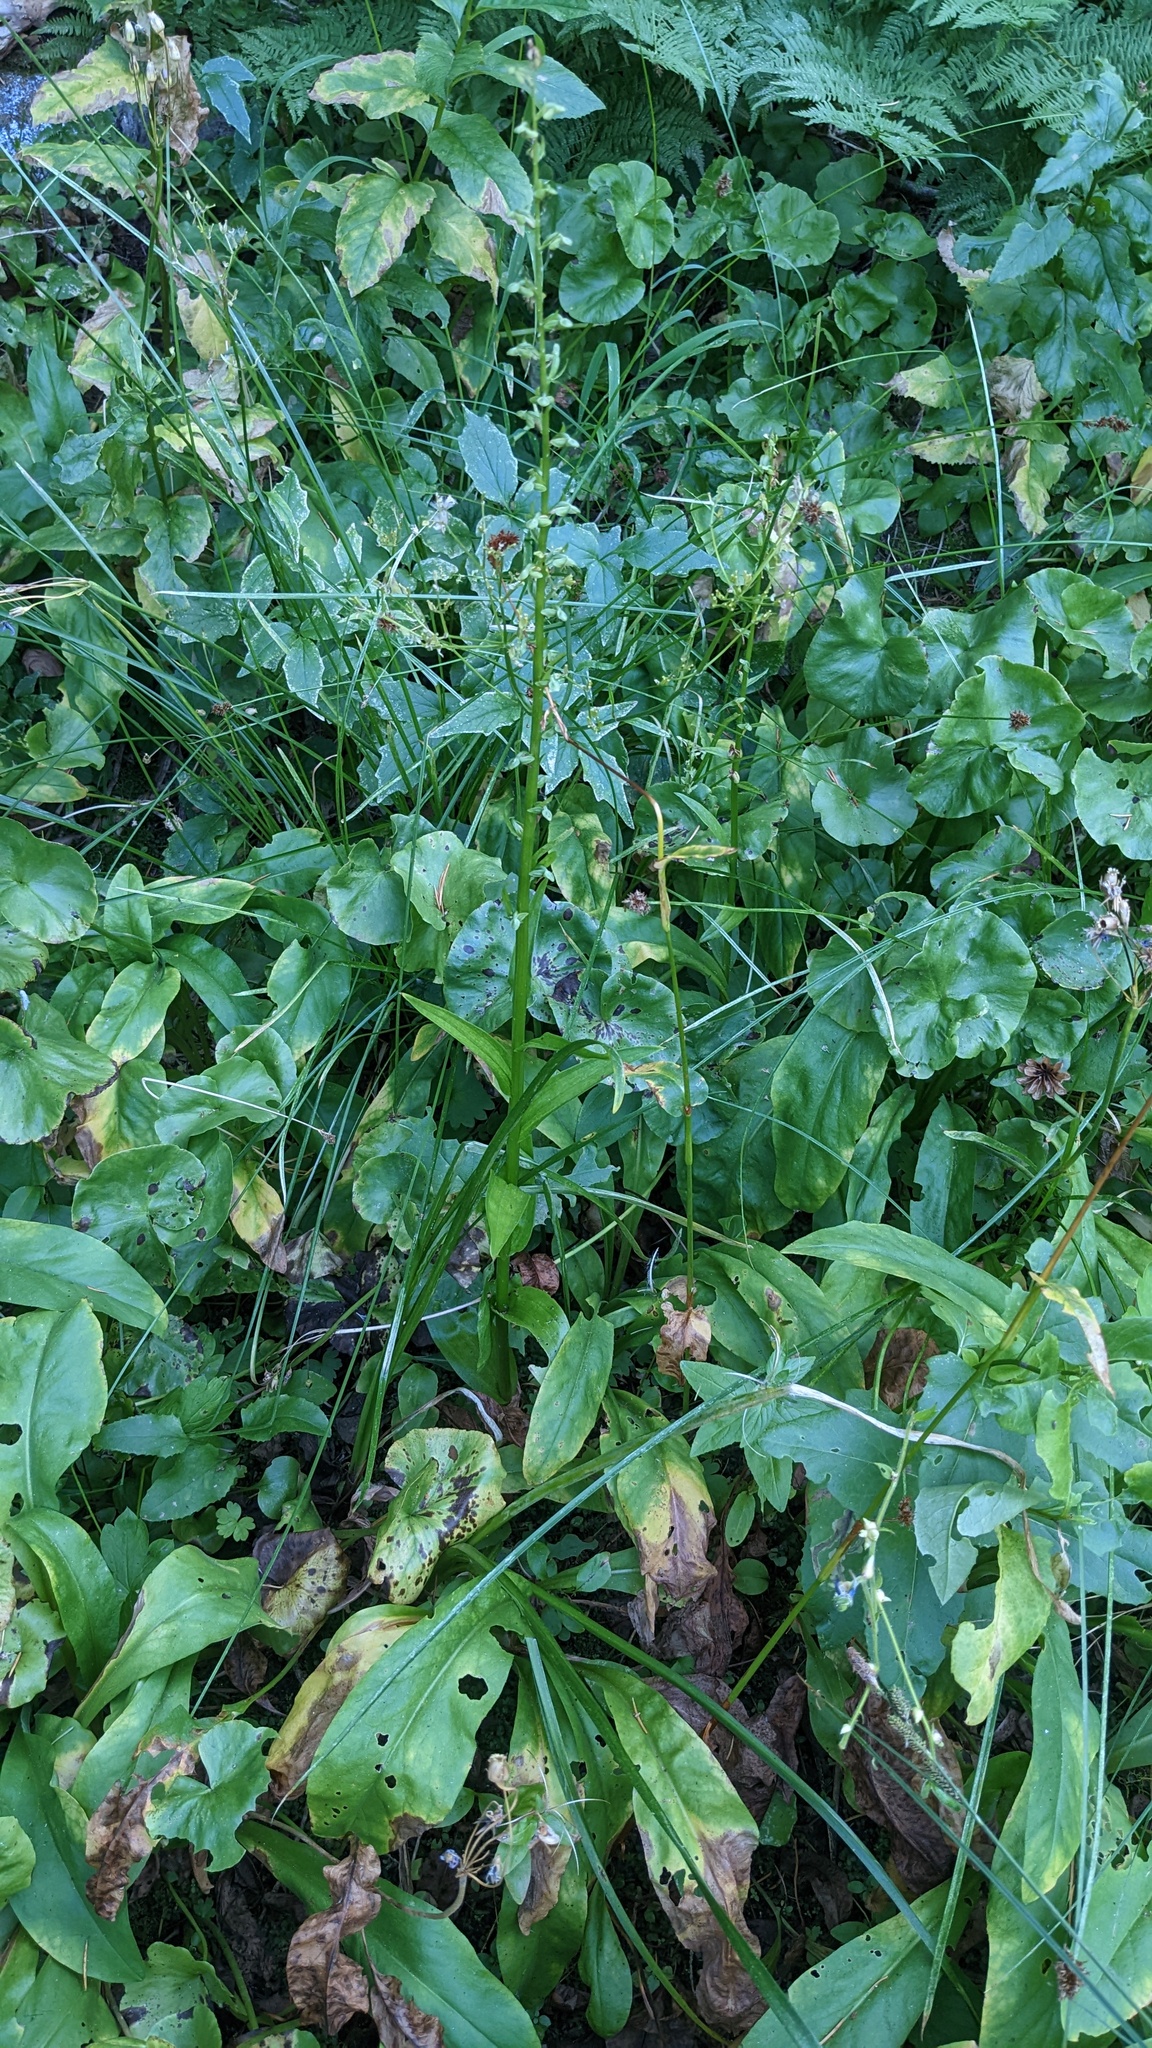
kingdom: Plantae
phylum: Tracheophyta
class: Liliopsida
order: Asparagales
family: Orchidaceae
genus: Platanthera
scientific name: Platanthera sparsiflora
